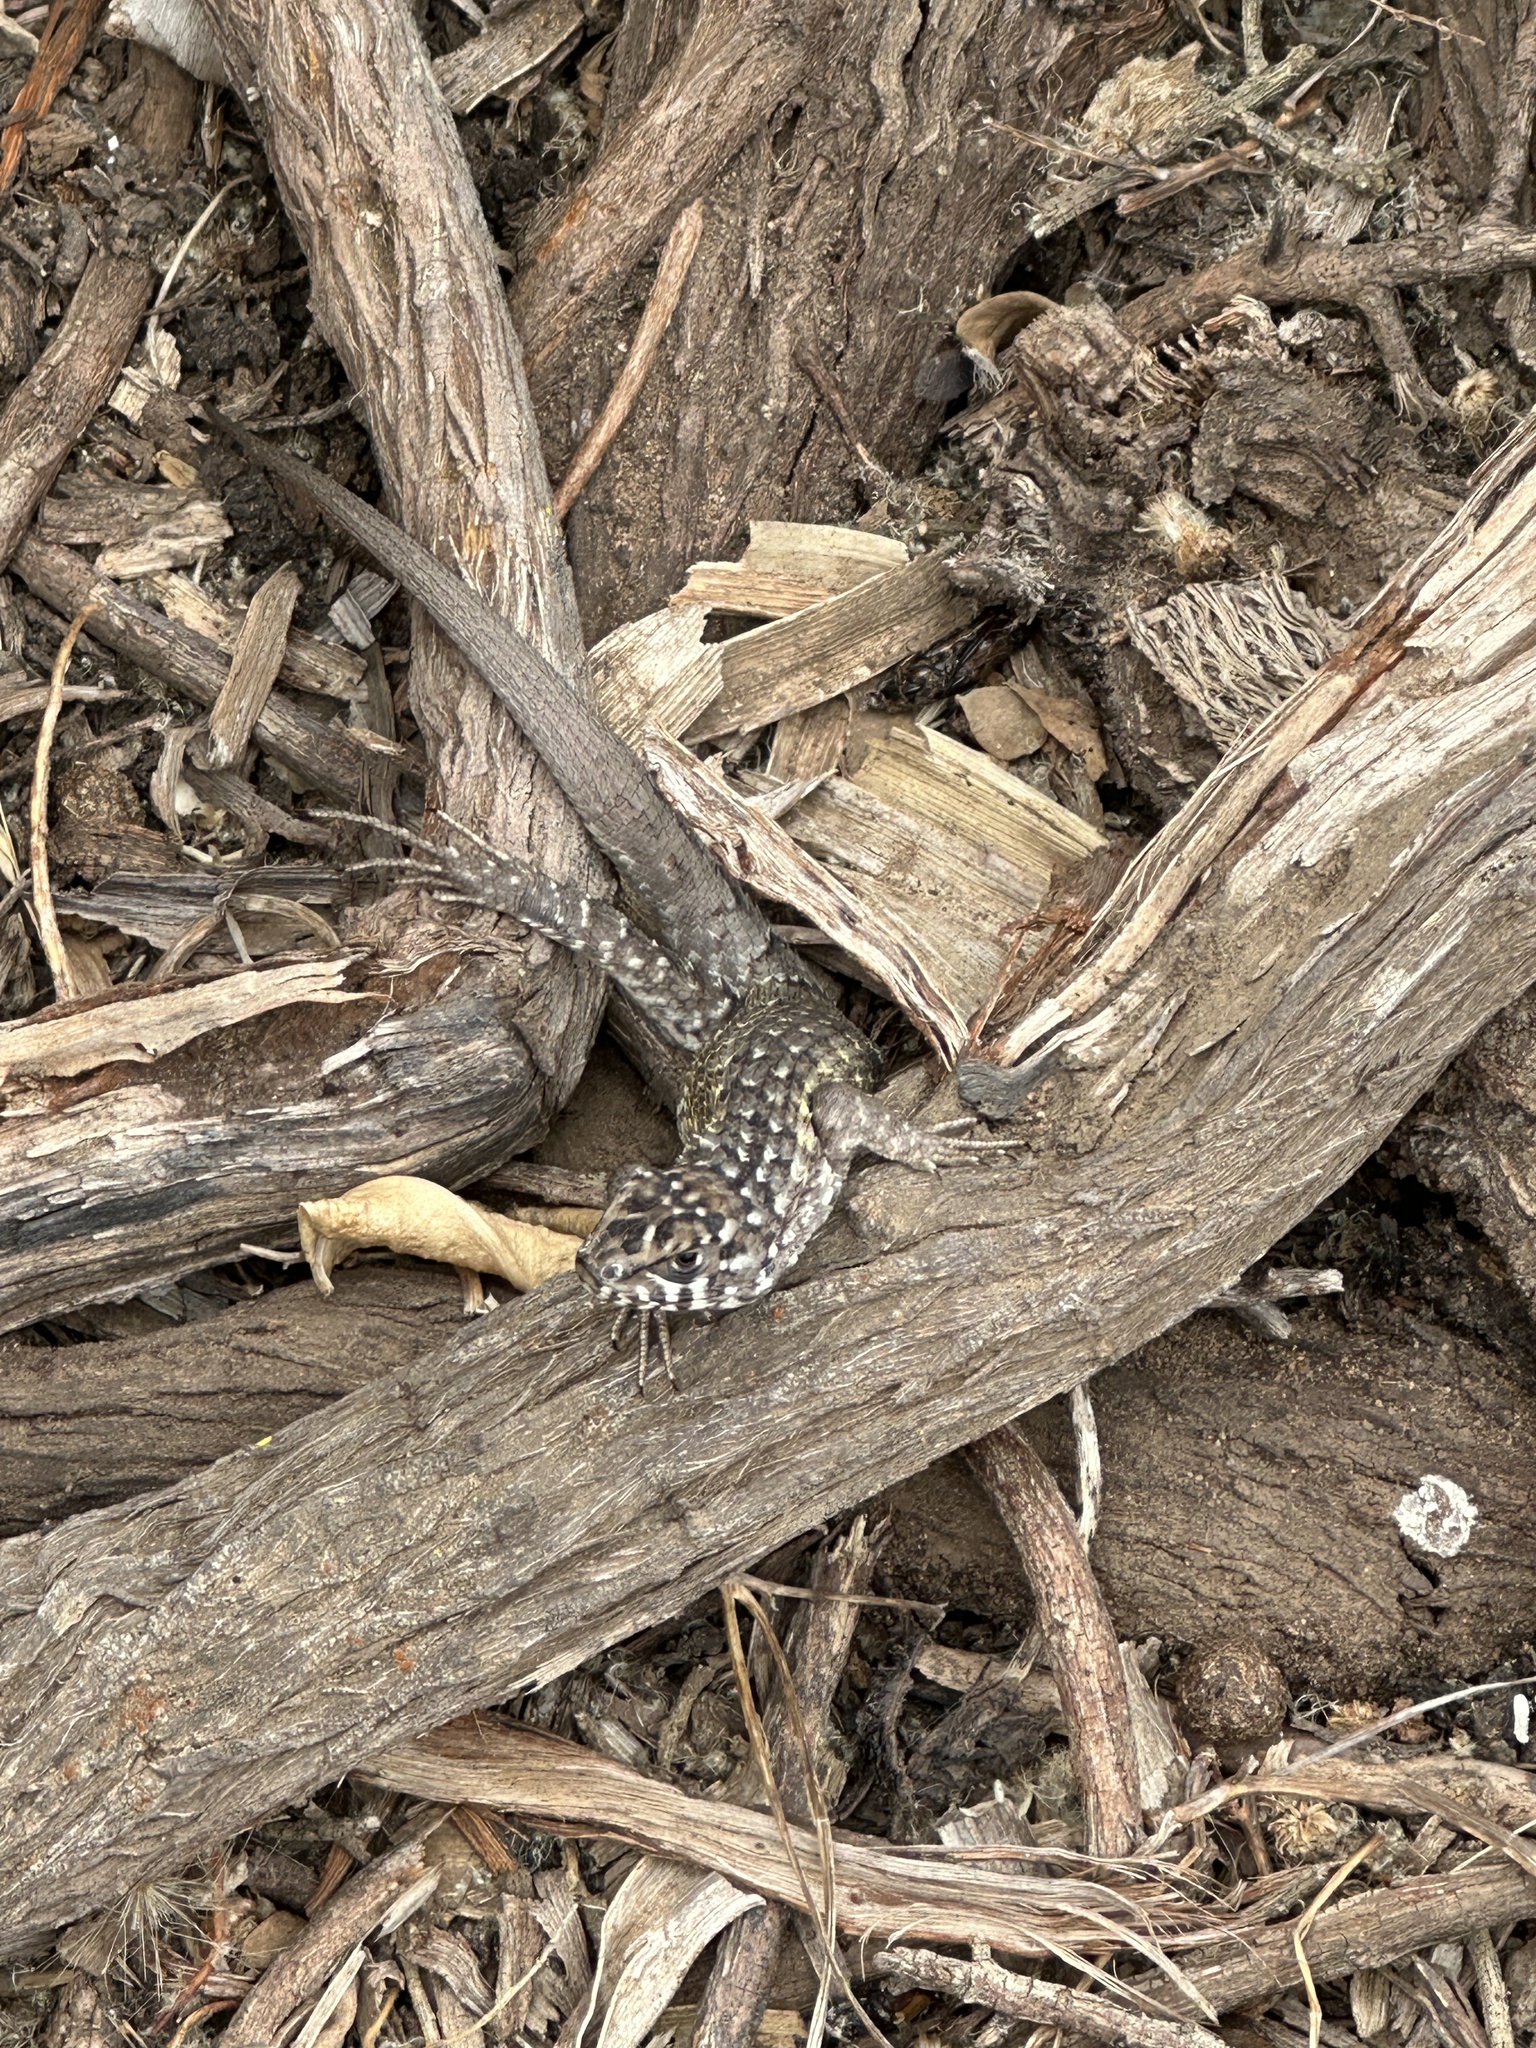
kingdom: Animalia
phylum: Chordata
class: Squamata
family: Liolaemidae
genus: Liolaemus
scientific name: Liolaemus nitidus
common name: Shining tree iguana
